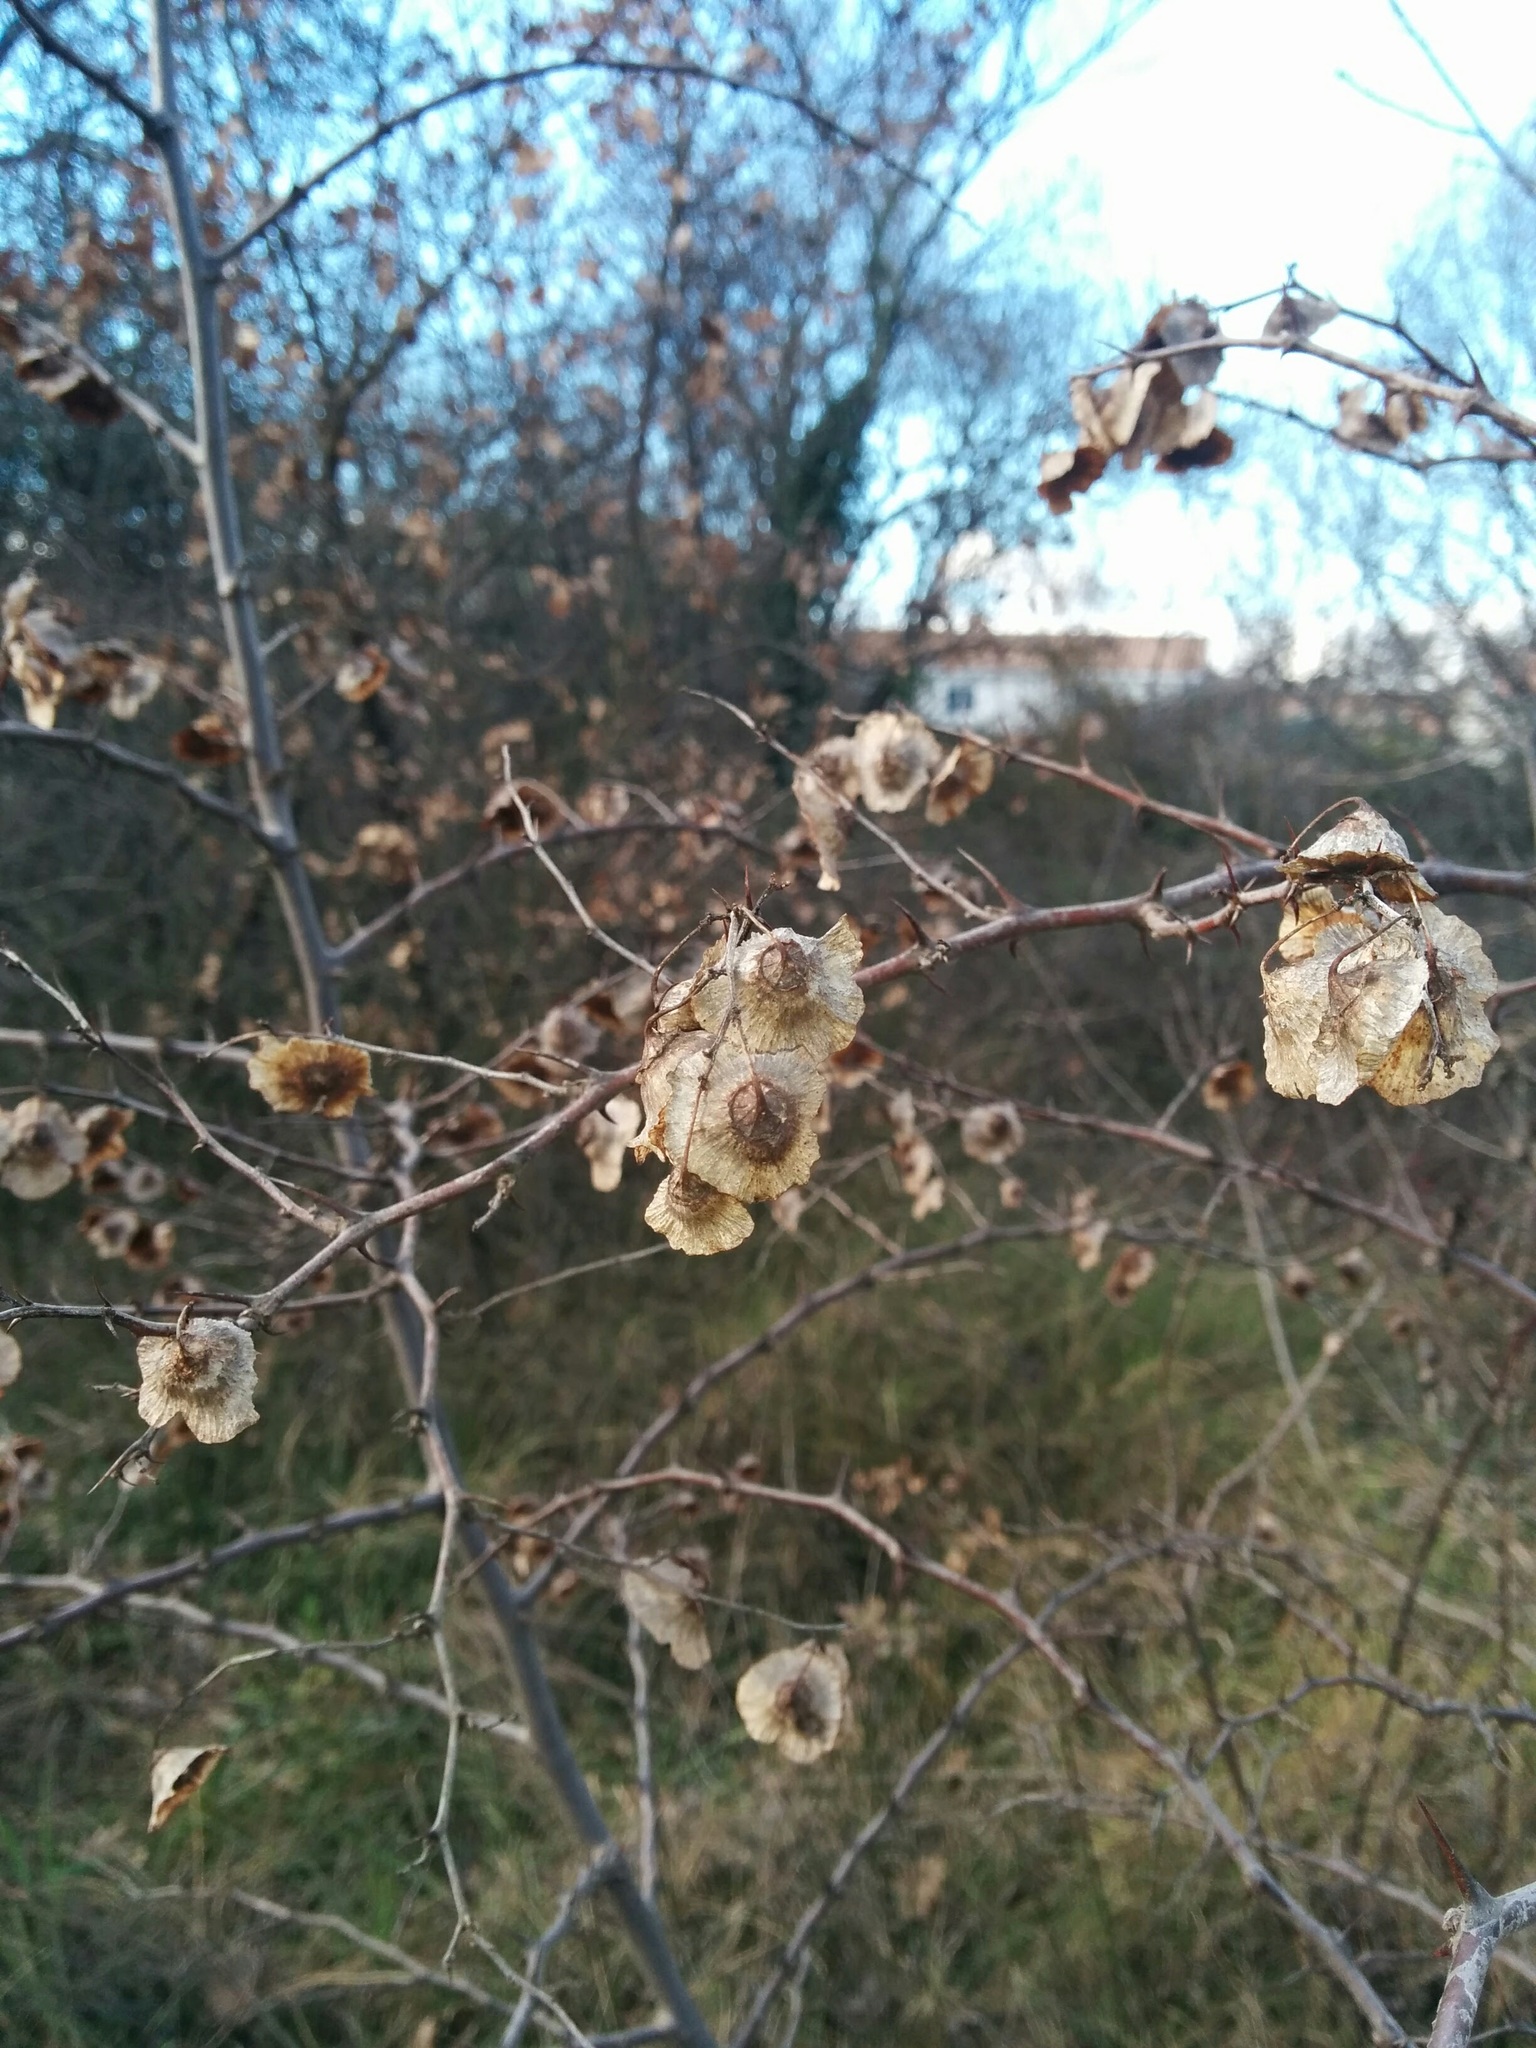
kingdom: Plantae
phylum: Tracheophyta
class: Magnoliopsida
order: Rosales
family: Rhamnaceae
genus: Paliurus
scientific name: Paliurus spina-christi
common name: Jeruselem thorn
